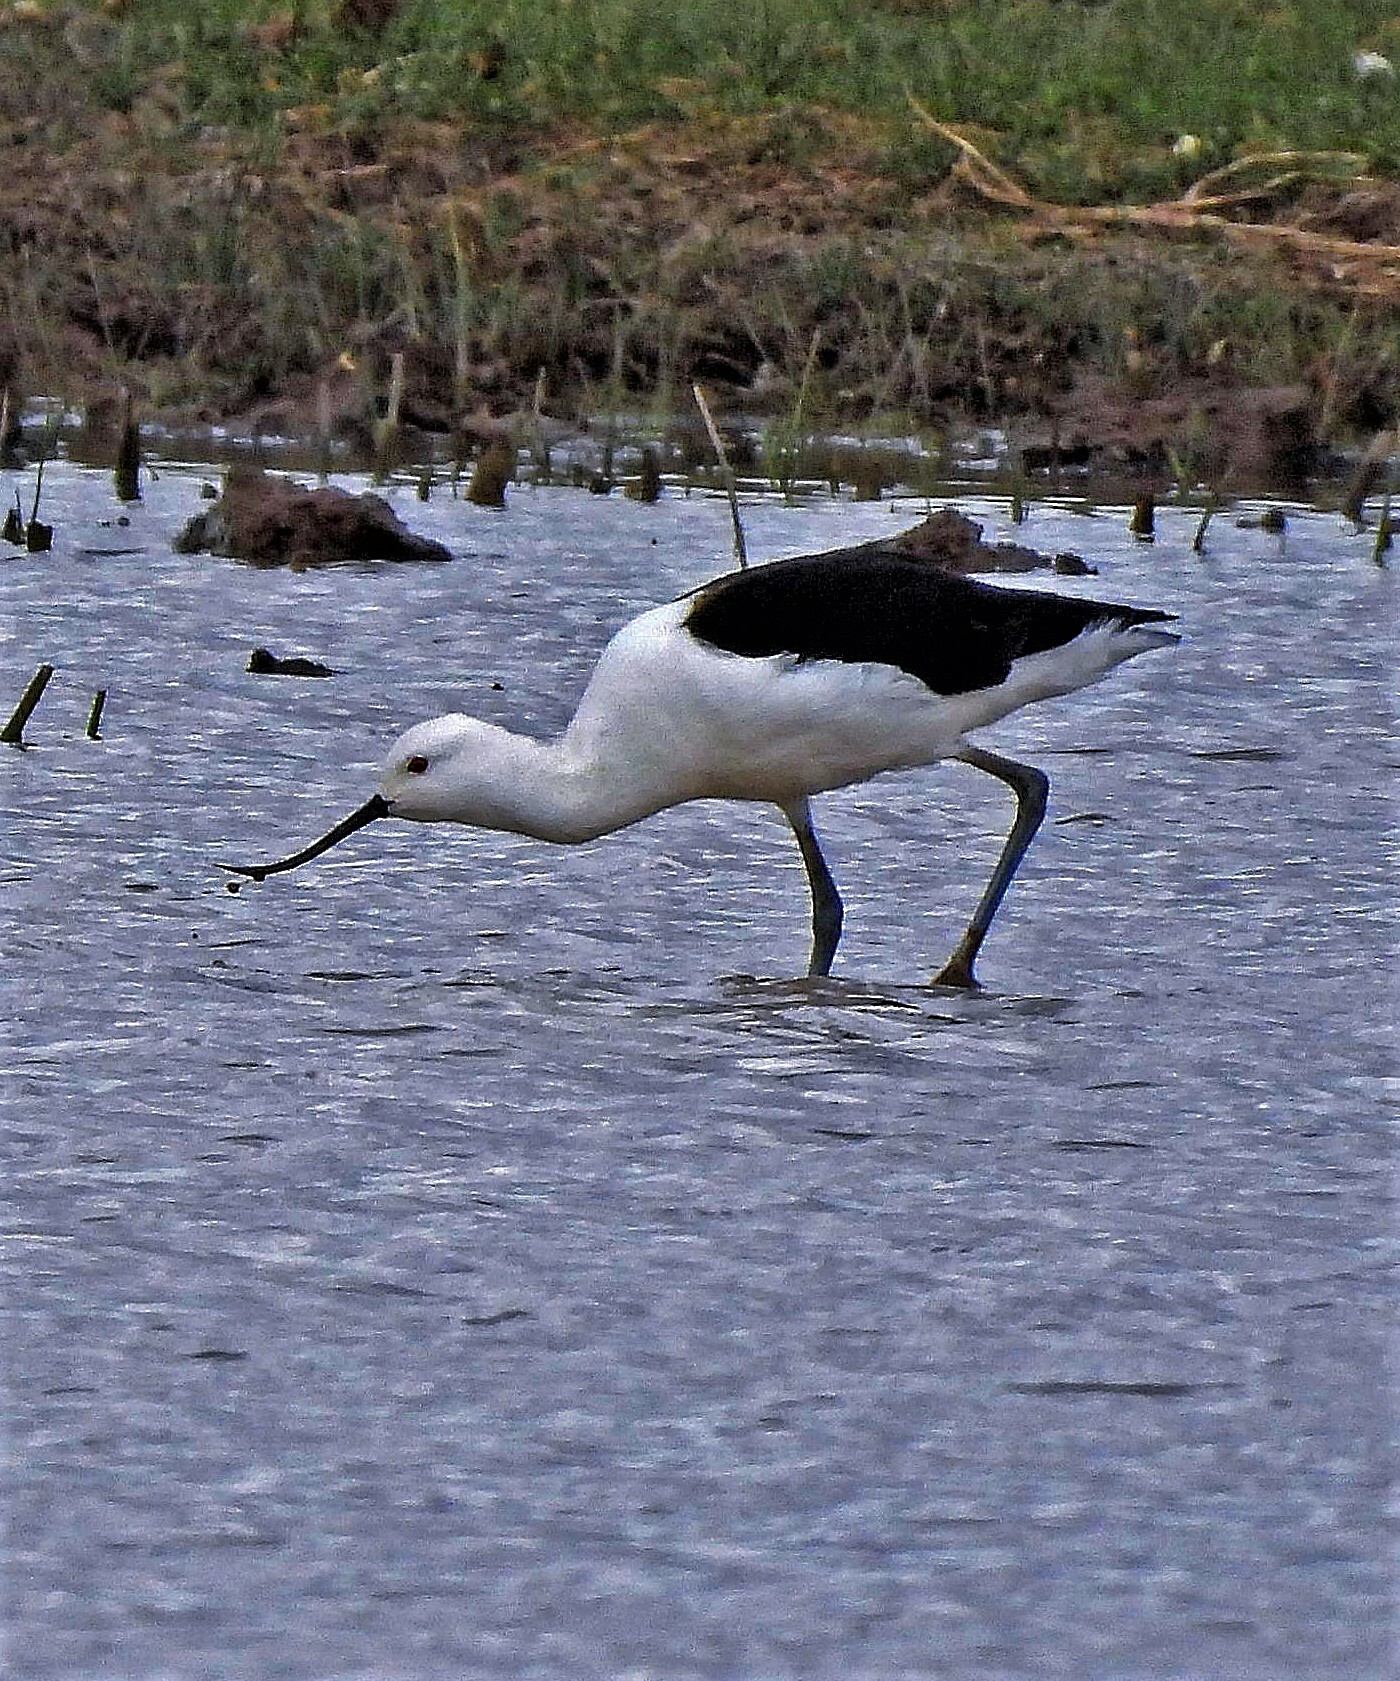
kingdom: Animalia
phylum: Chordata
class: Aves
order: Charadriiformes
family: Recurvirostridae
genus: Recurvirostra
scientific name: Recurvirostra andina
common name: Andean avocet
